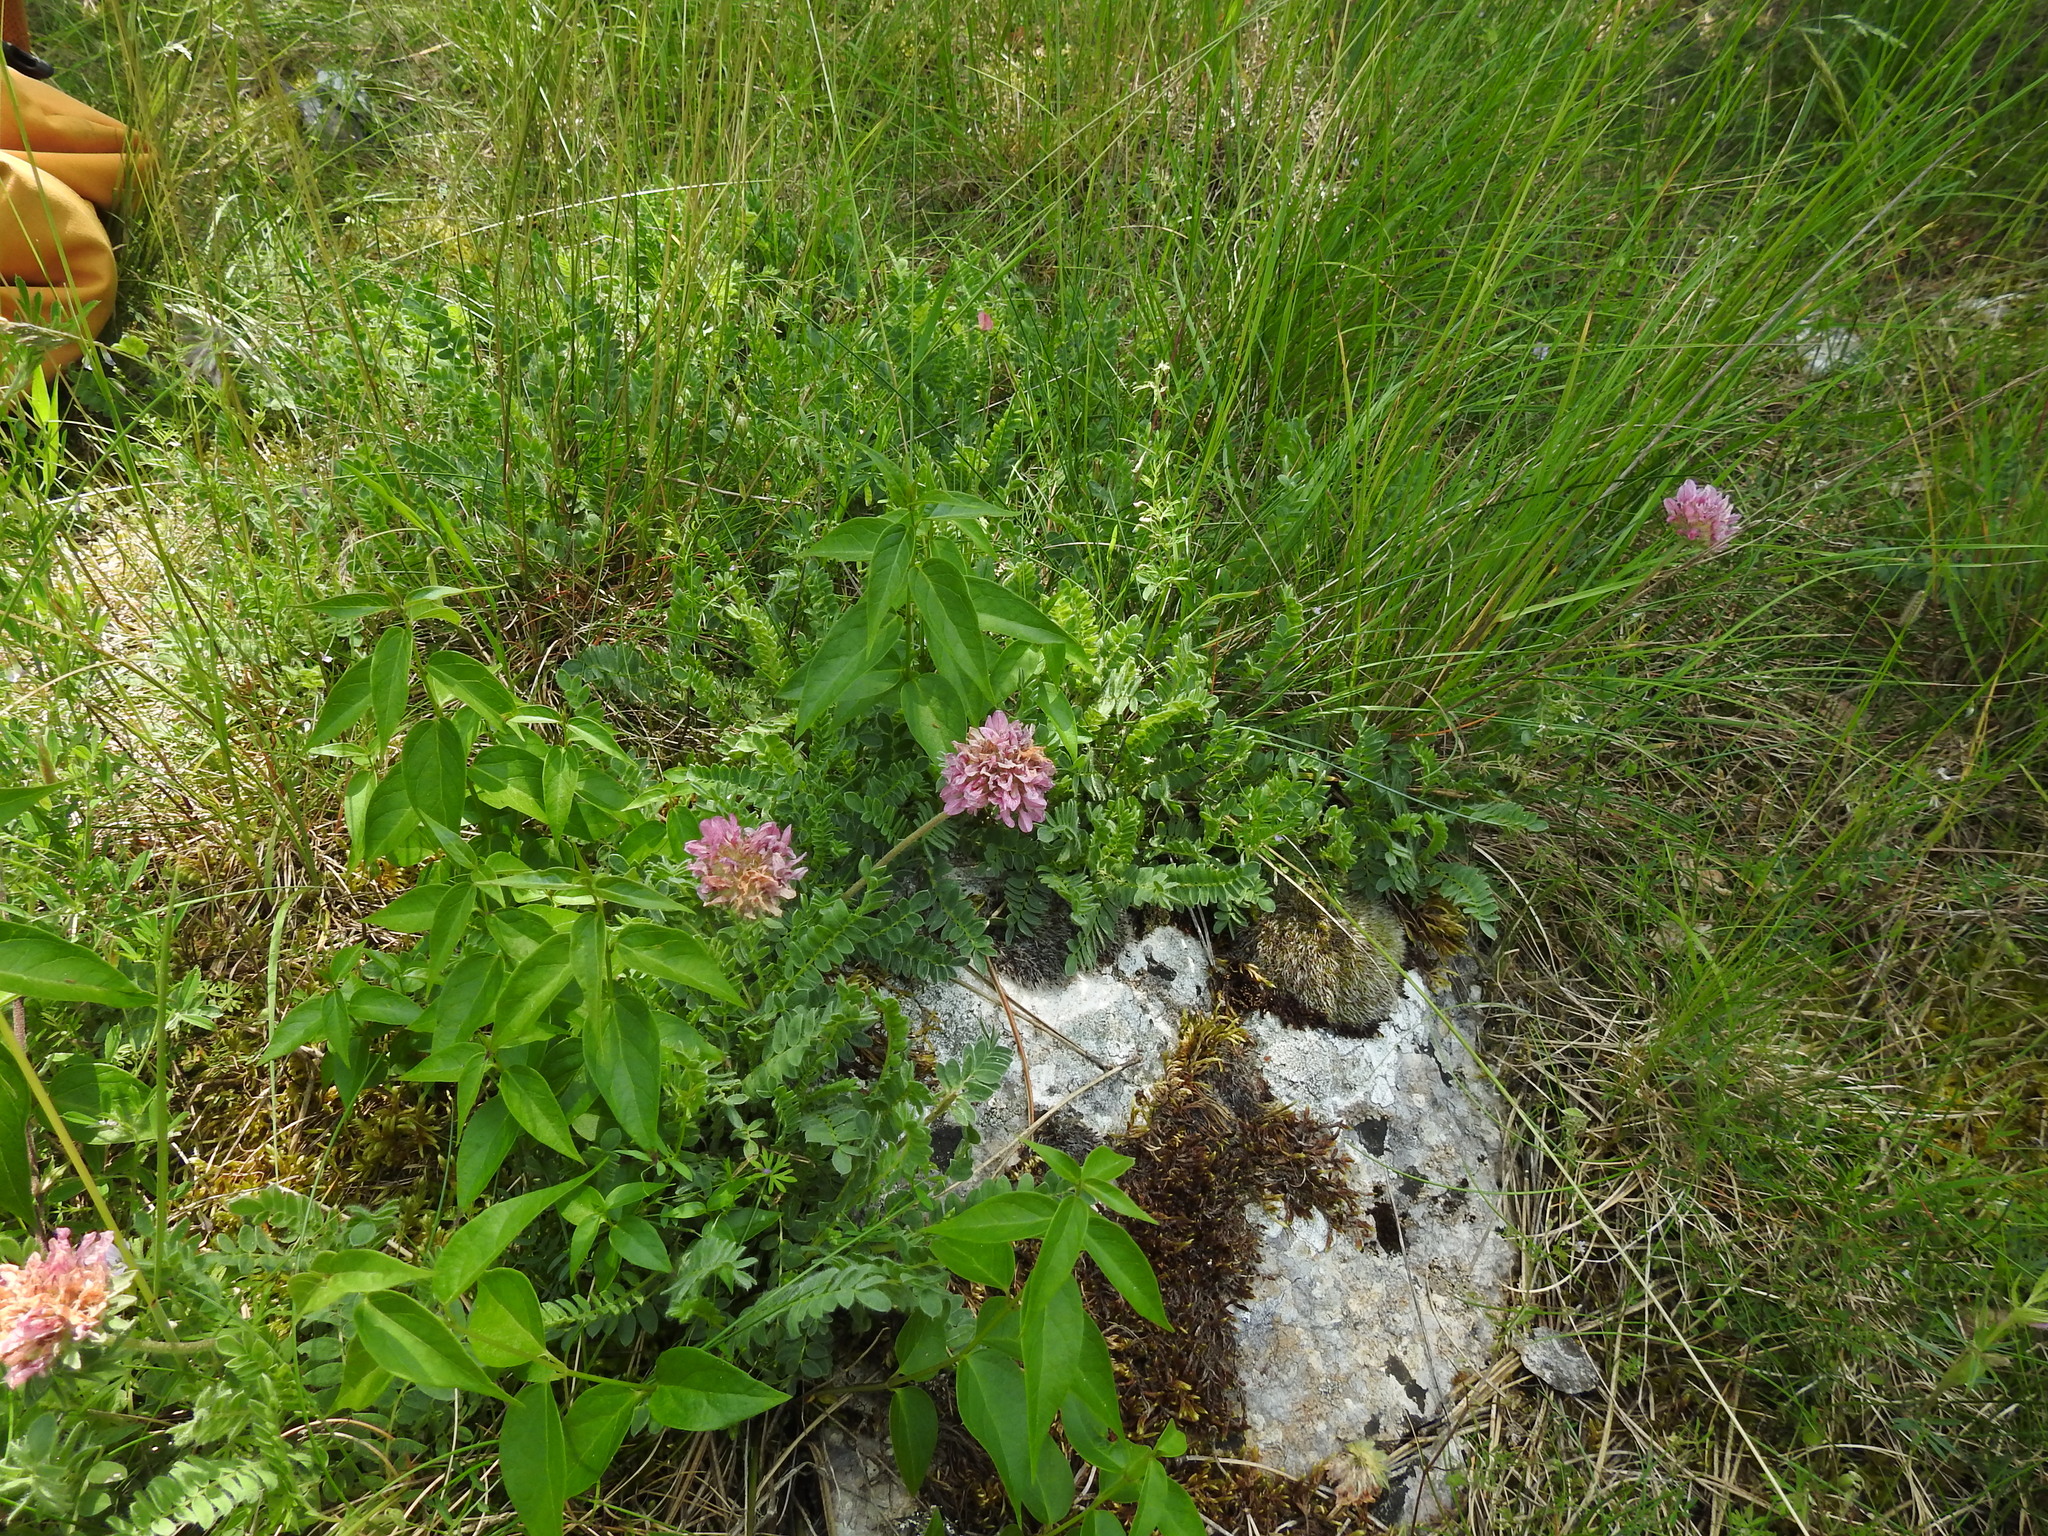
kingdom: Plantae
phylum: Tracheophyta
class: Magnoliopsida
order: Fabales
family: Fabaceae
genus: Anthyllis
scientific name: Anthyllis montana
